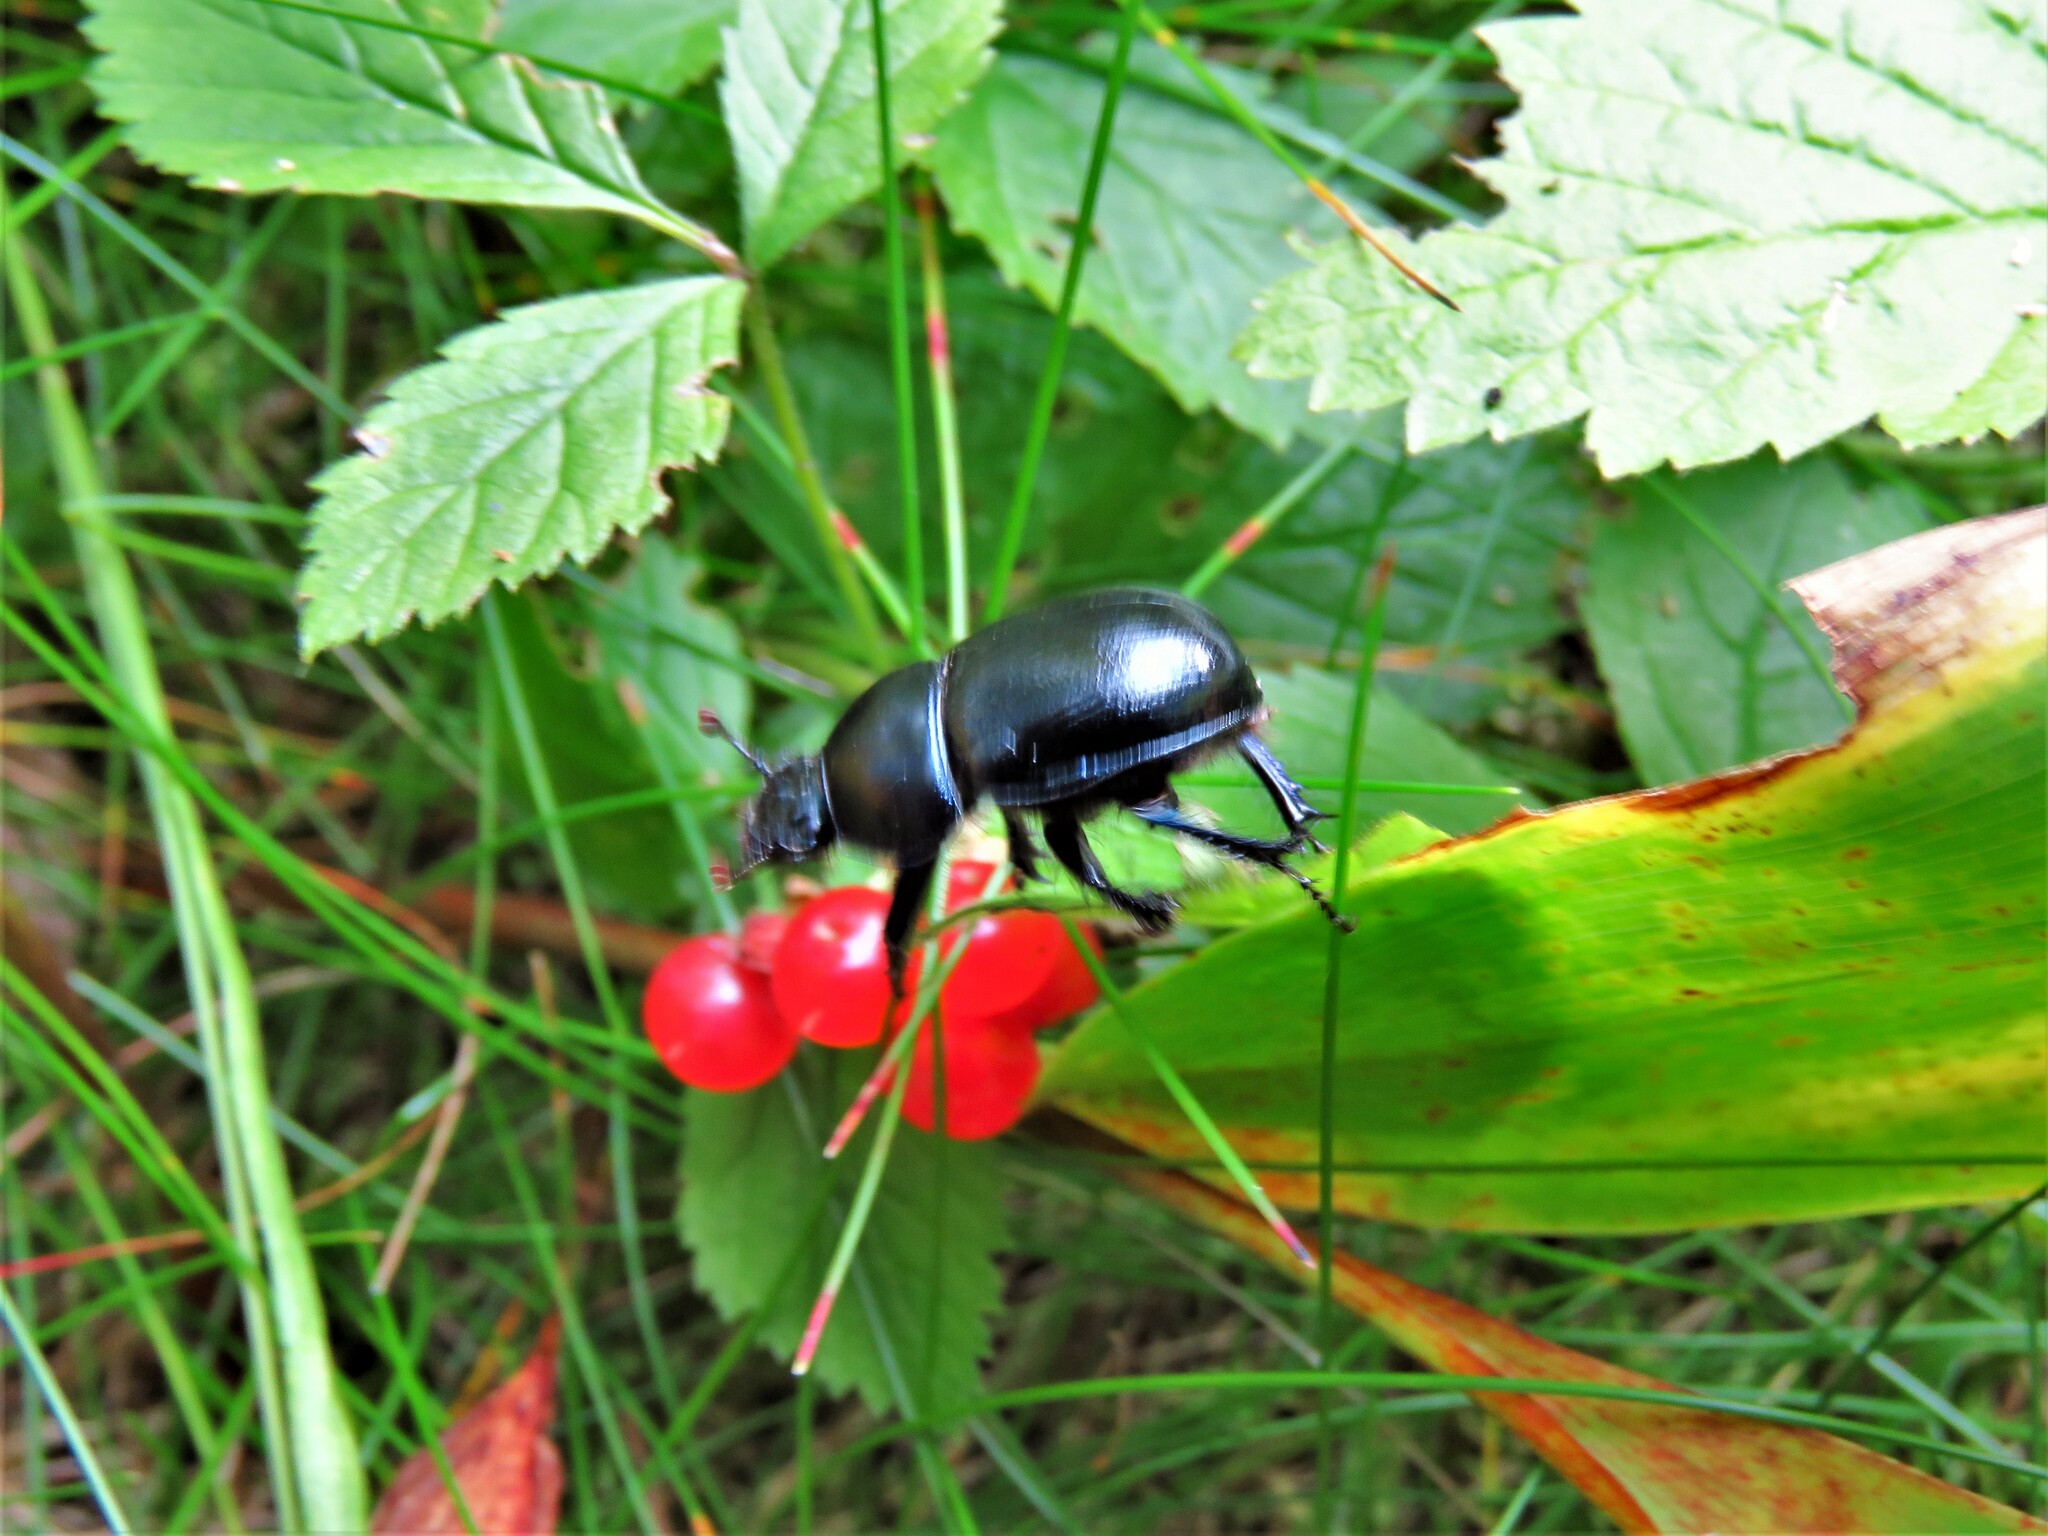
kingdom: Animalia
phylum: Arthropoda
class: Insecta
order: Coleoptera
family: Geotrupidae
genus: Anoplotrupes
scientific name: Anoplotrupes stercorosus
